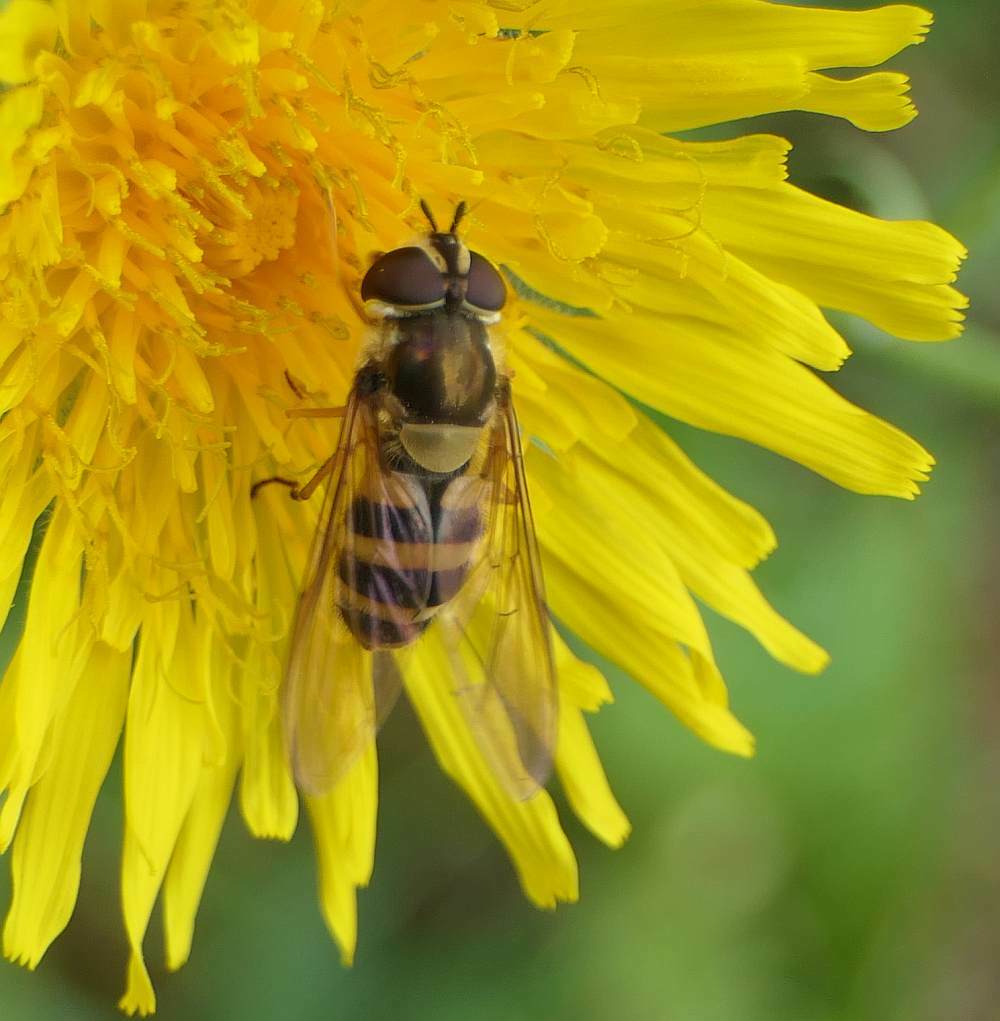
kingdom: Animalia
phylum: Arthropoda
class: Insecta
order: Diptera
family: Syrphidae
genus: Epistrophe
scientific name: Epistrophe grossulariae
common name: Black-horned smoothtail
